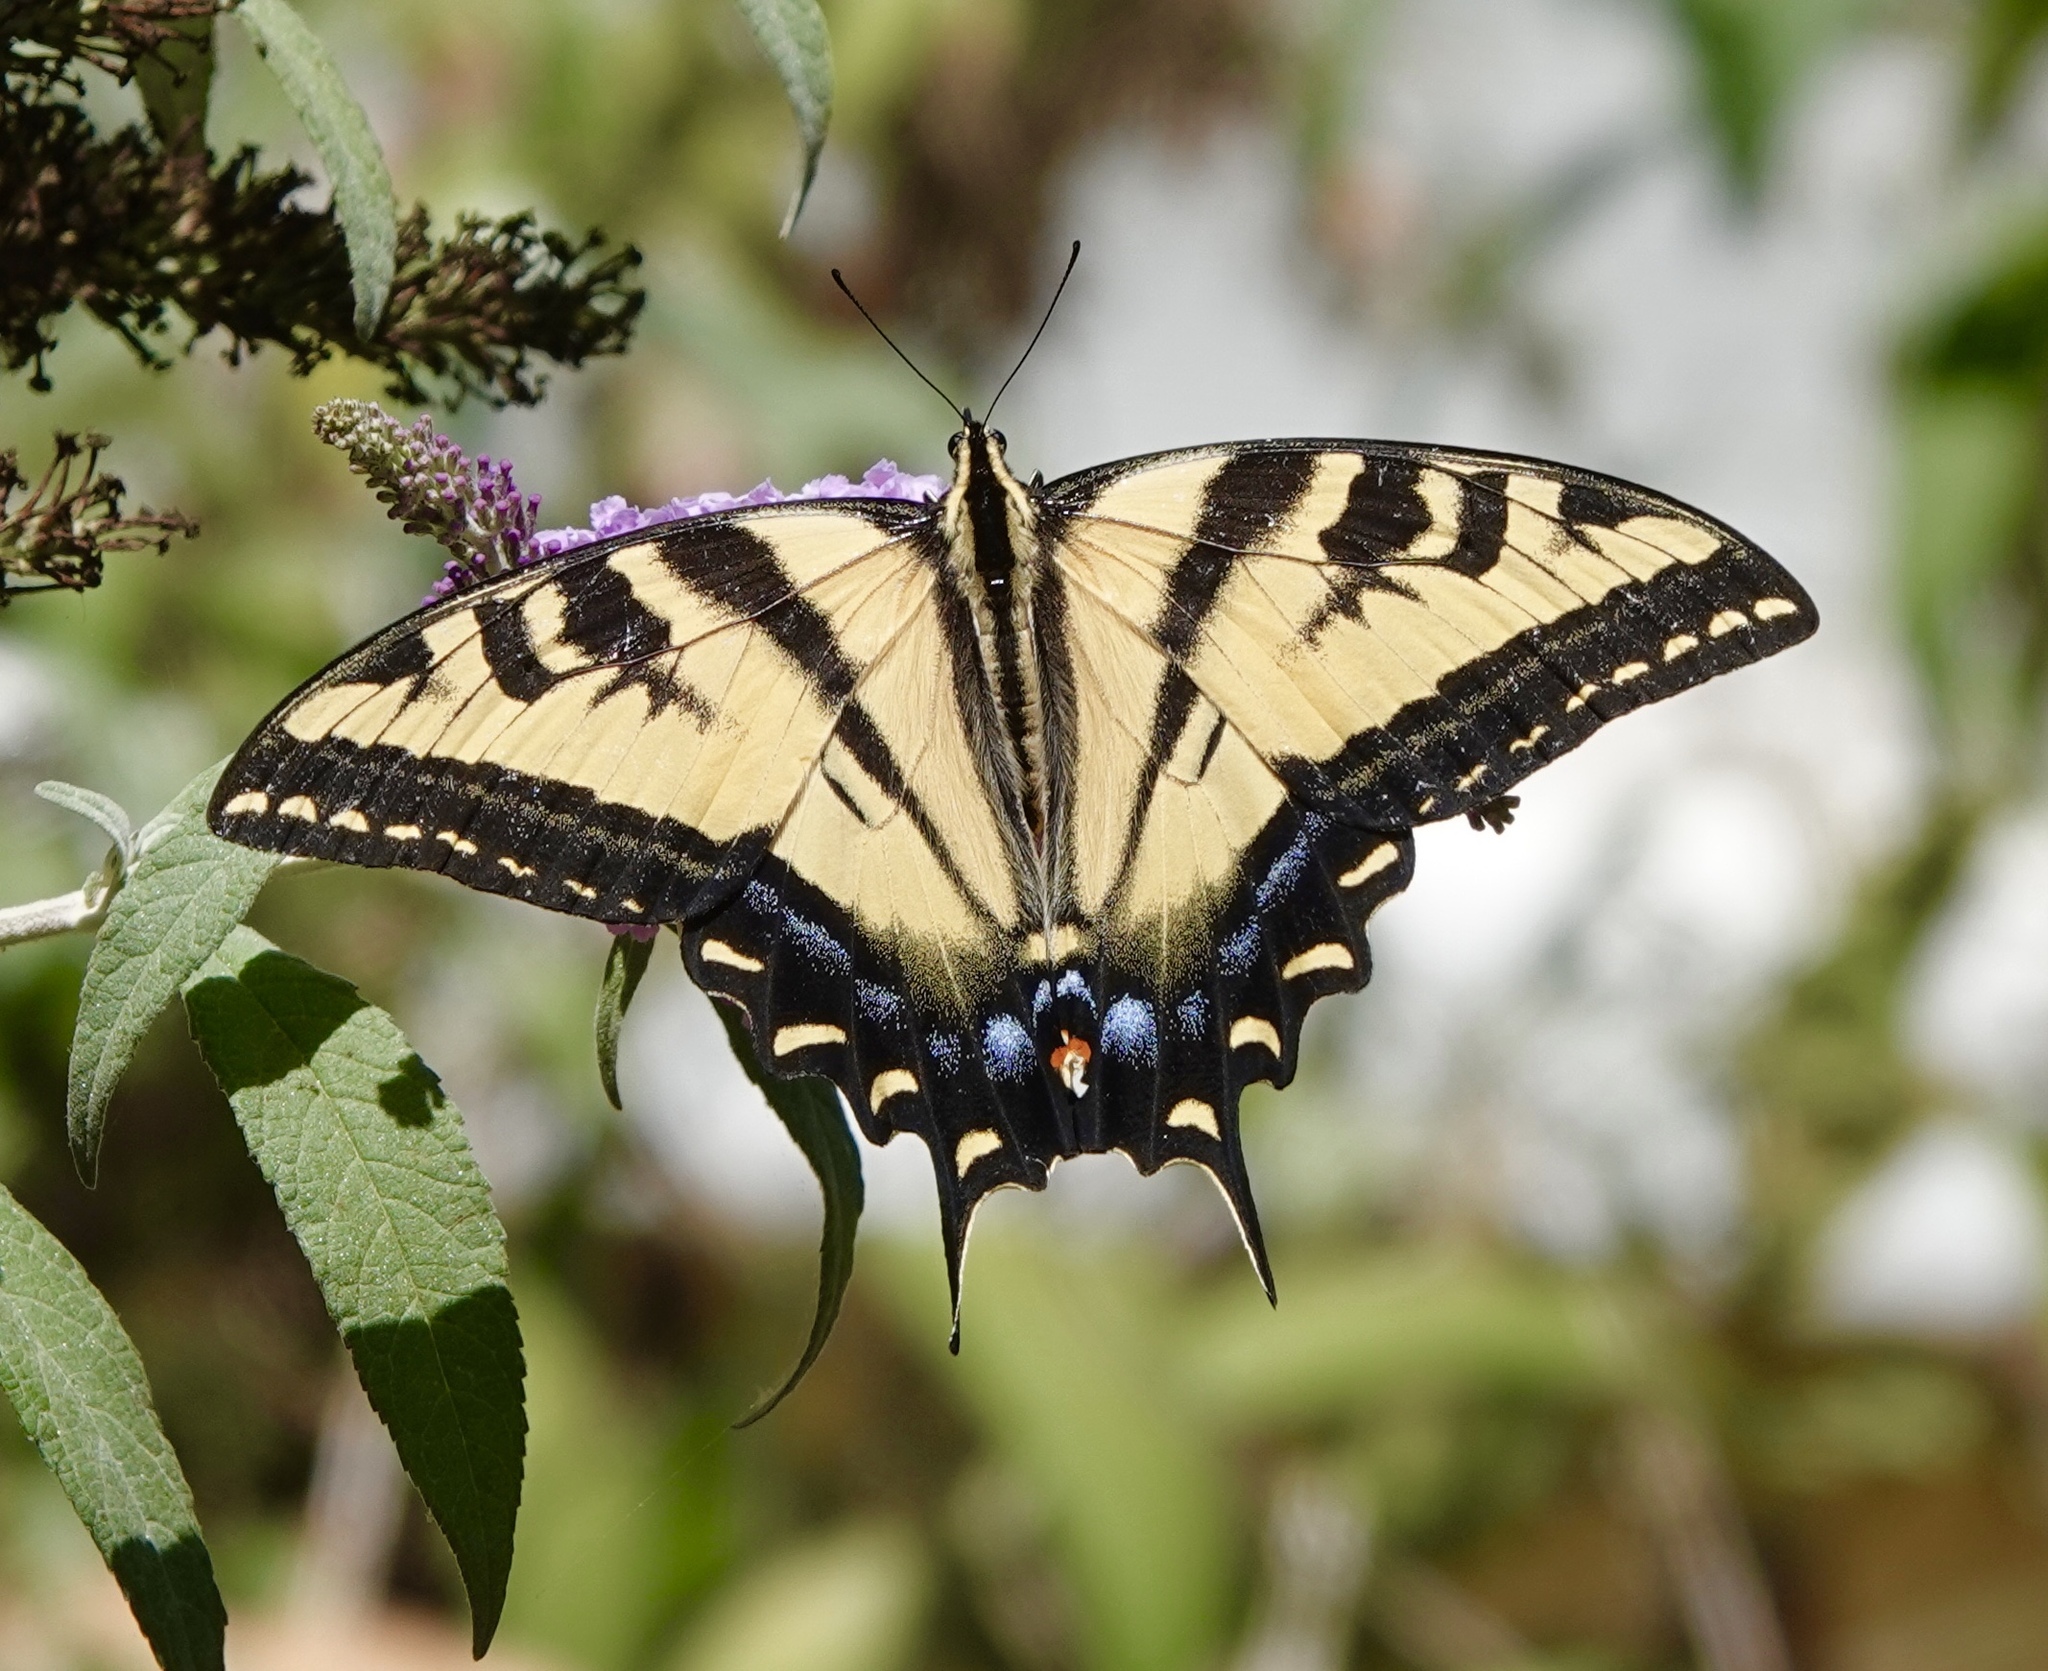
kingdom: Animalia
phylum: Arthropoda
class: Insecta
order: Lepidoptera
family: Papilionidae
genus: Papilio
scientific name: Papilio rutulus
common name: Western tiger swallowtail
